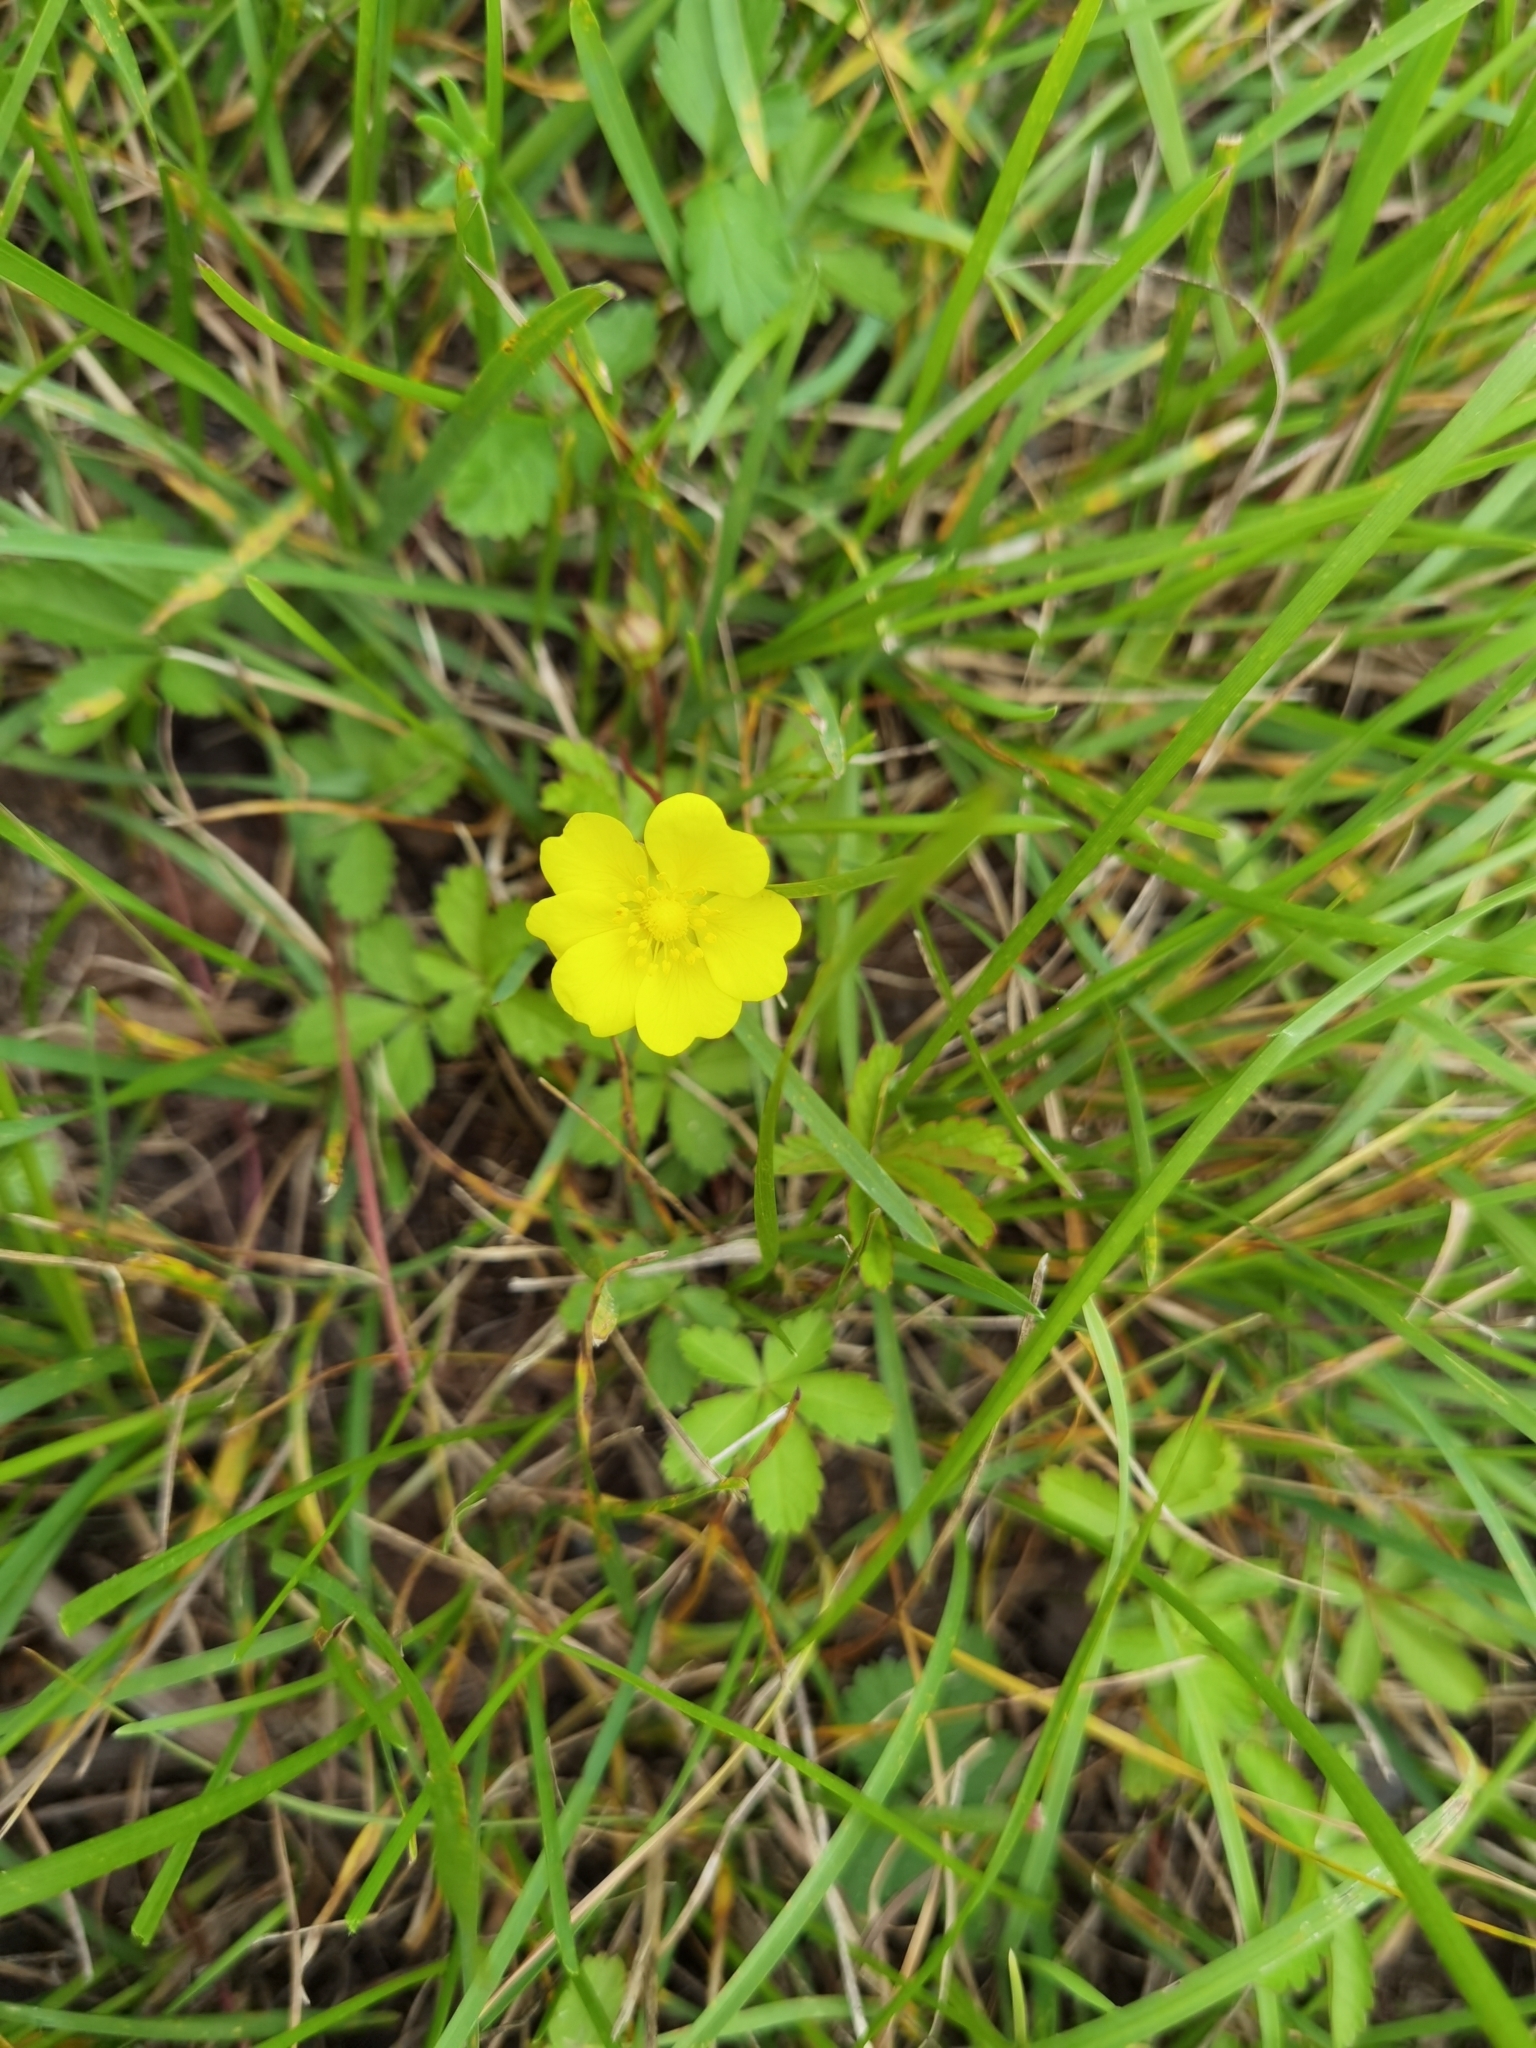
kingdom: Plantae
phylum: Tracheophyta
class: Magnoliopsida
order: Rosales
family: Rosaceae
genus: Potentilla
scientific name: Potentilla reptans
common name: Creeping cinquefoil
